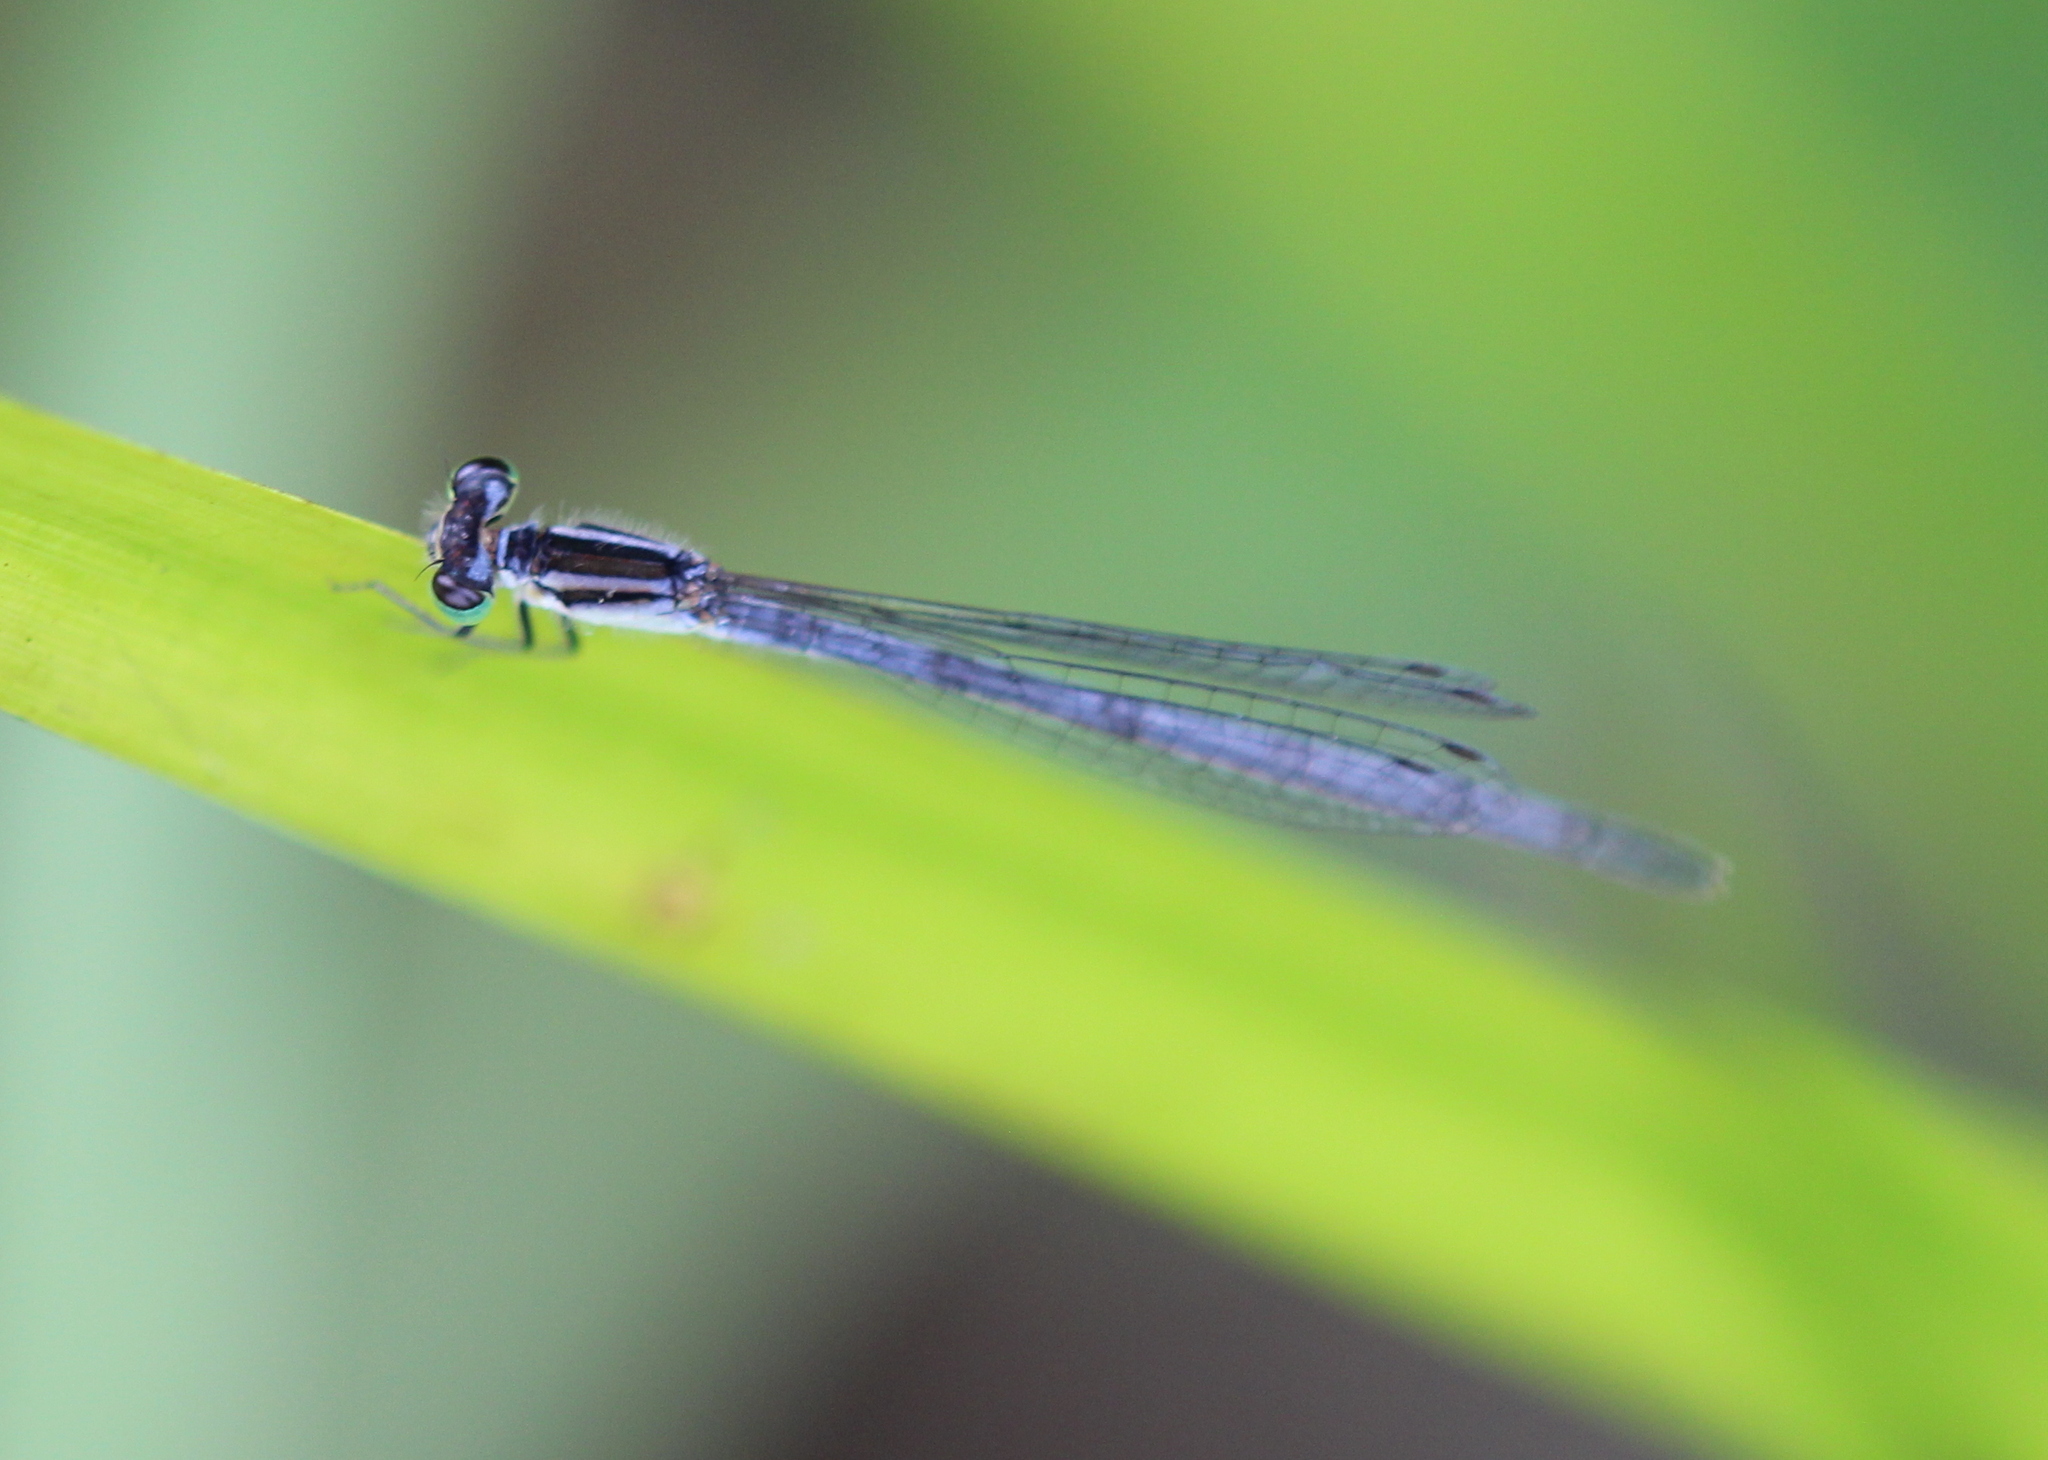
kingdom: Animalia
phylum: Arthropoda
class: Insecta
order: Odonata
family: Coenagrionidae
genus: Ischnura
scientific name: Ischnura verticalis
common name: Eastern forktail
